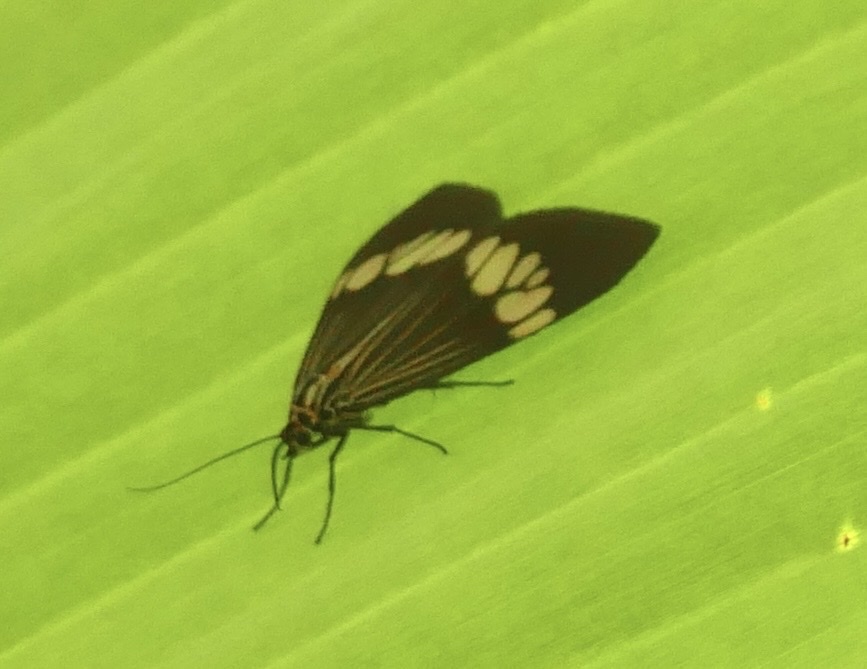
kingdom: Animalia
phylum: Arthropoda
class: Insecta
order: Lepidoptera
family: Erebidae
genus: Nyctemera
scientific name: Nyctemera baulus
